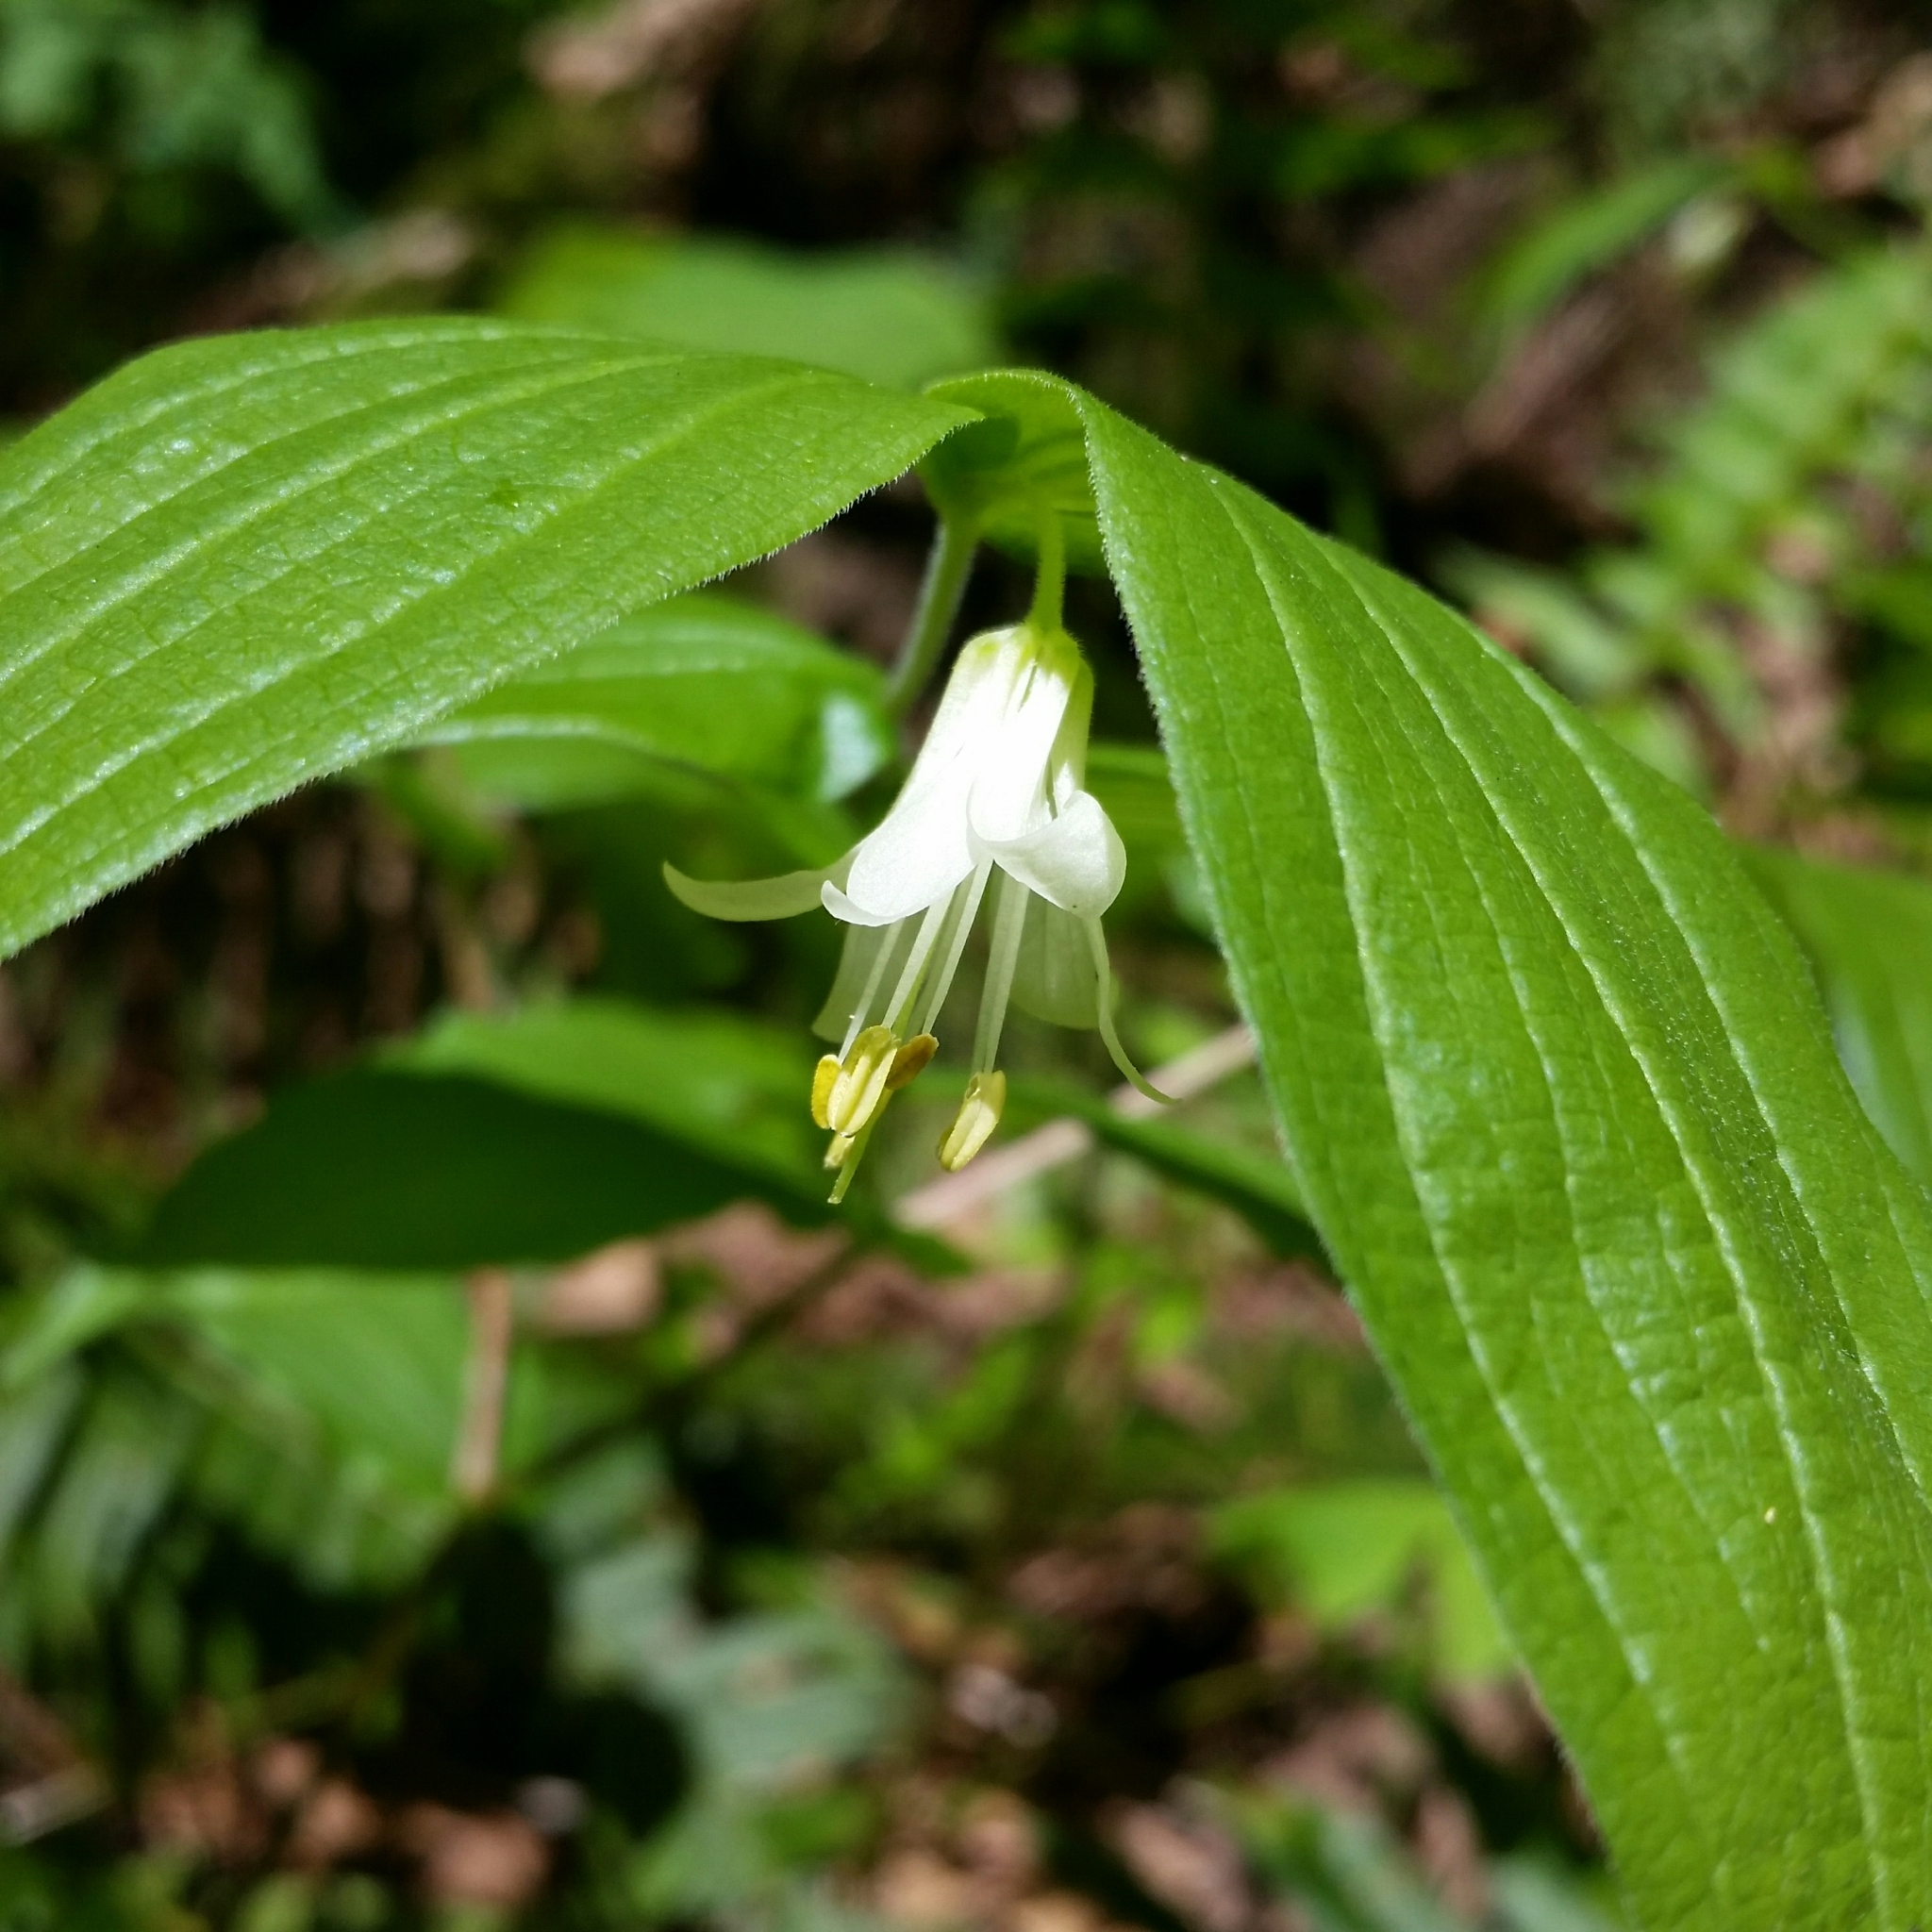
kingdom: Plantae
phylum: Tracheophyta
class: Liliopsida
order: Liliales
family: Liliaceae
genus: Prosartes
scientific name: Prosartes hookeri
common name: Fairy-bells
